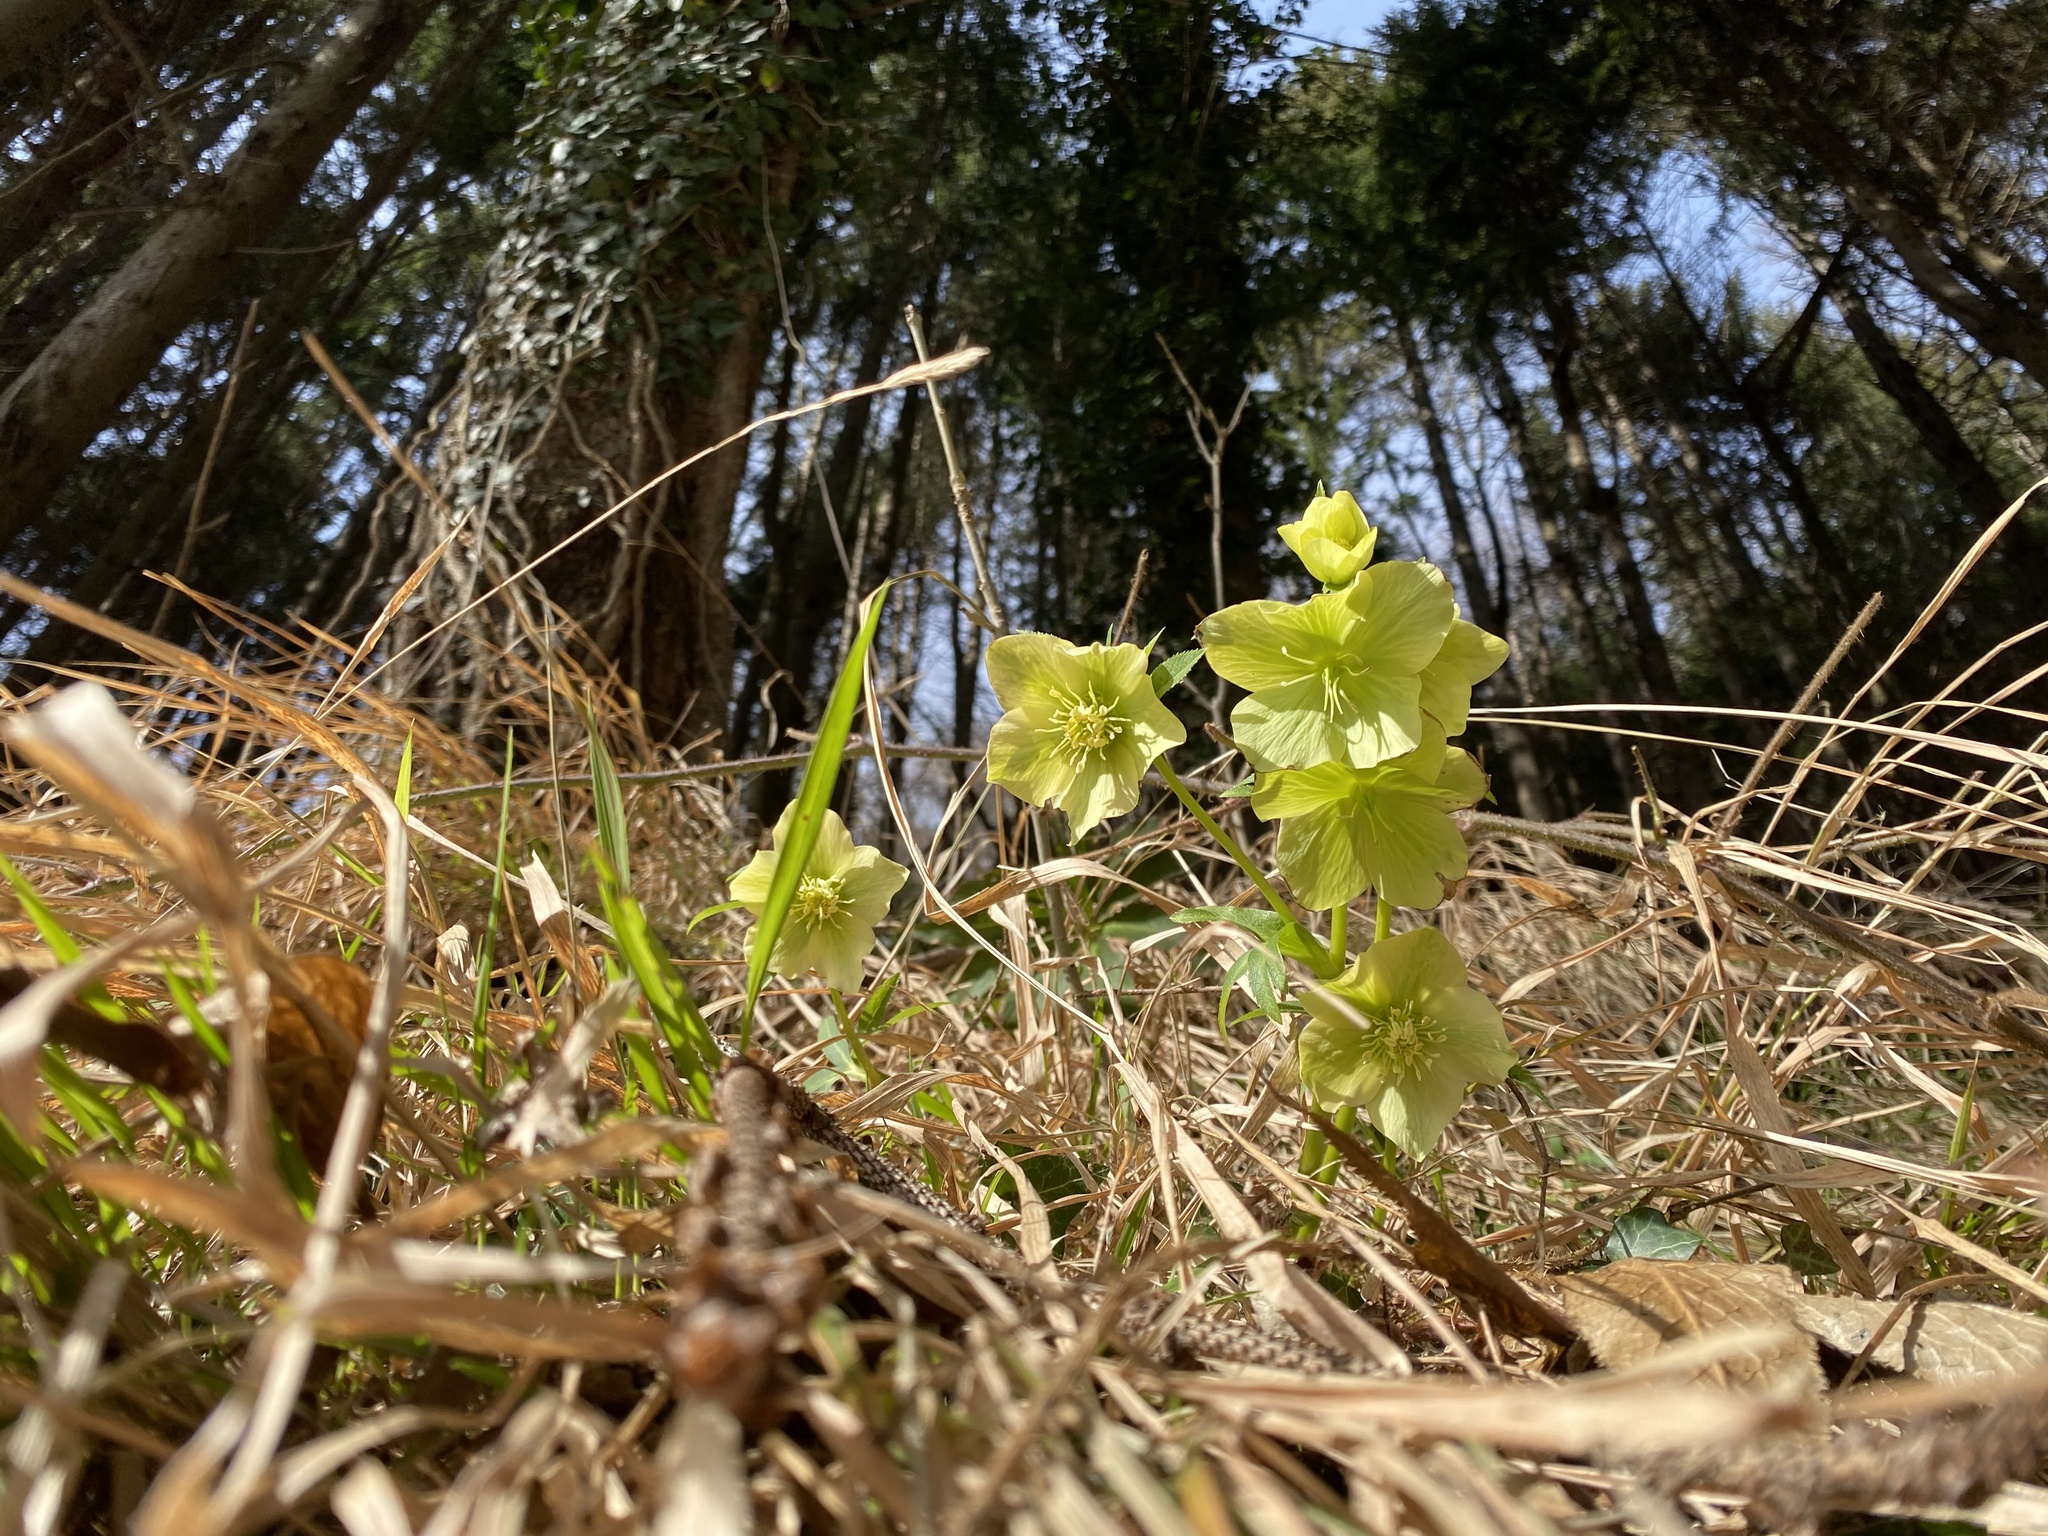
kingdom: Plantae
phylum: Tracheophyta
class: Magnoliopsida
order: Ranunculales
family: Ranunculaceae
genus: Helleborus
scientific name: Helleborus viridis
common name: Green hellebore
